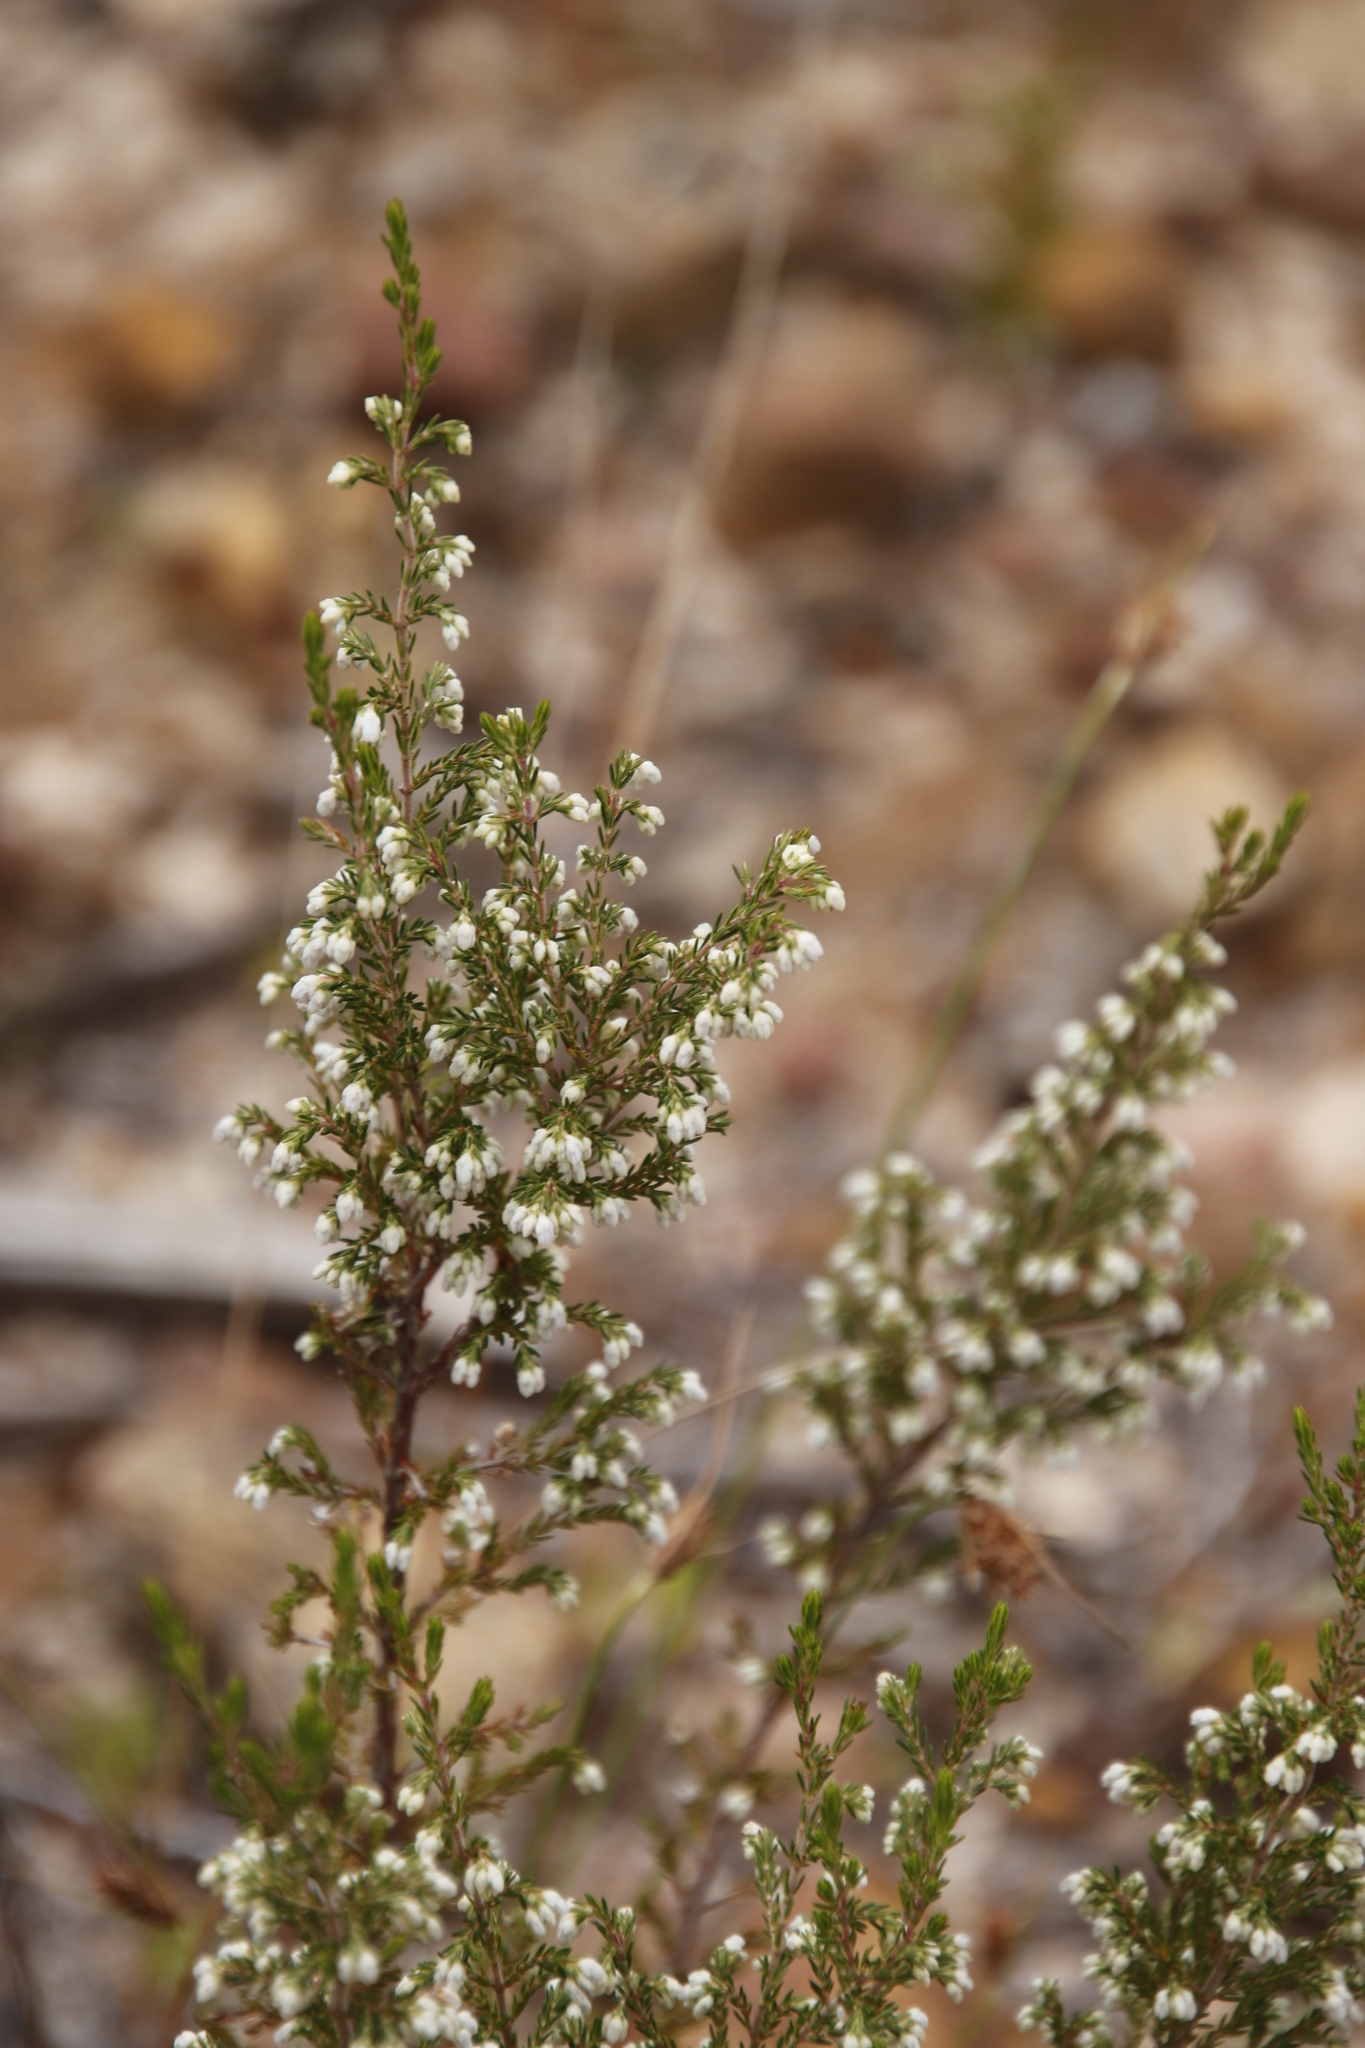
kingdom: Plantae
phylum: Tracheophyta
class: Magnoliopsida
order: Ericales
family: Ericaceae
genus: Erica
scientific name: Erica imbricata
